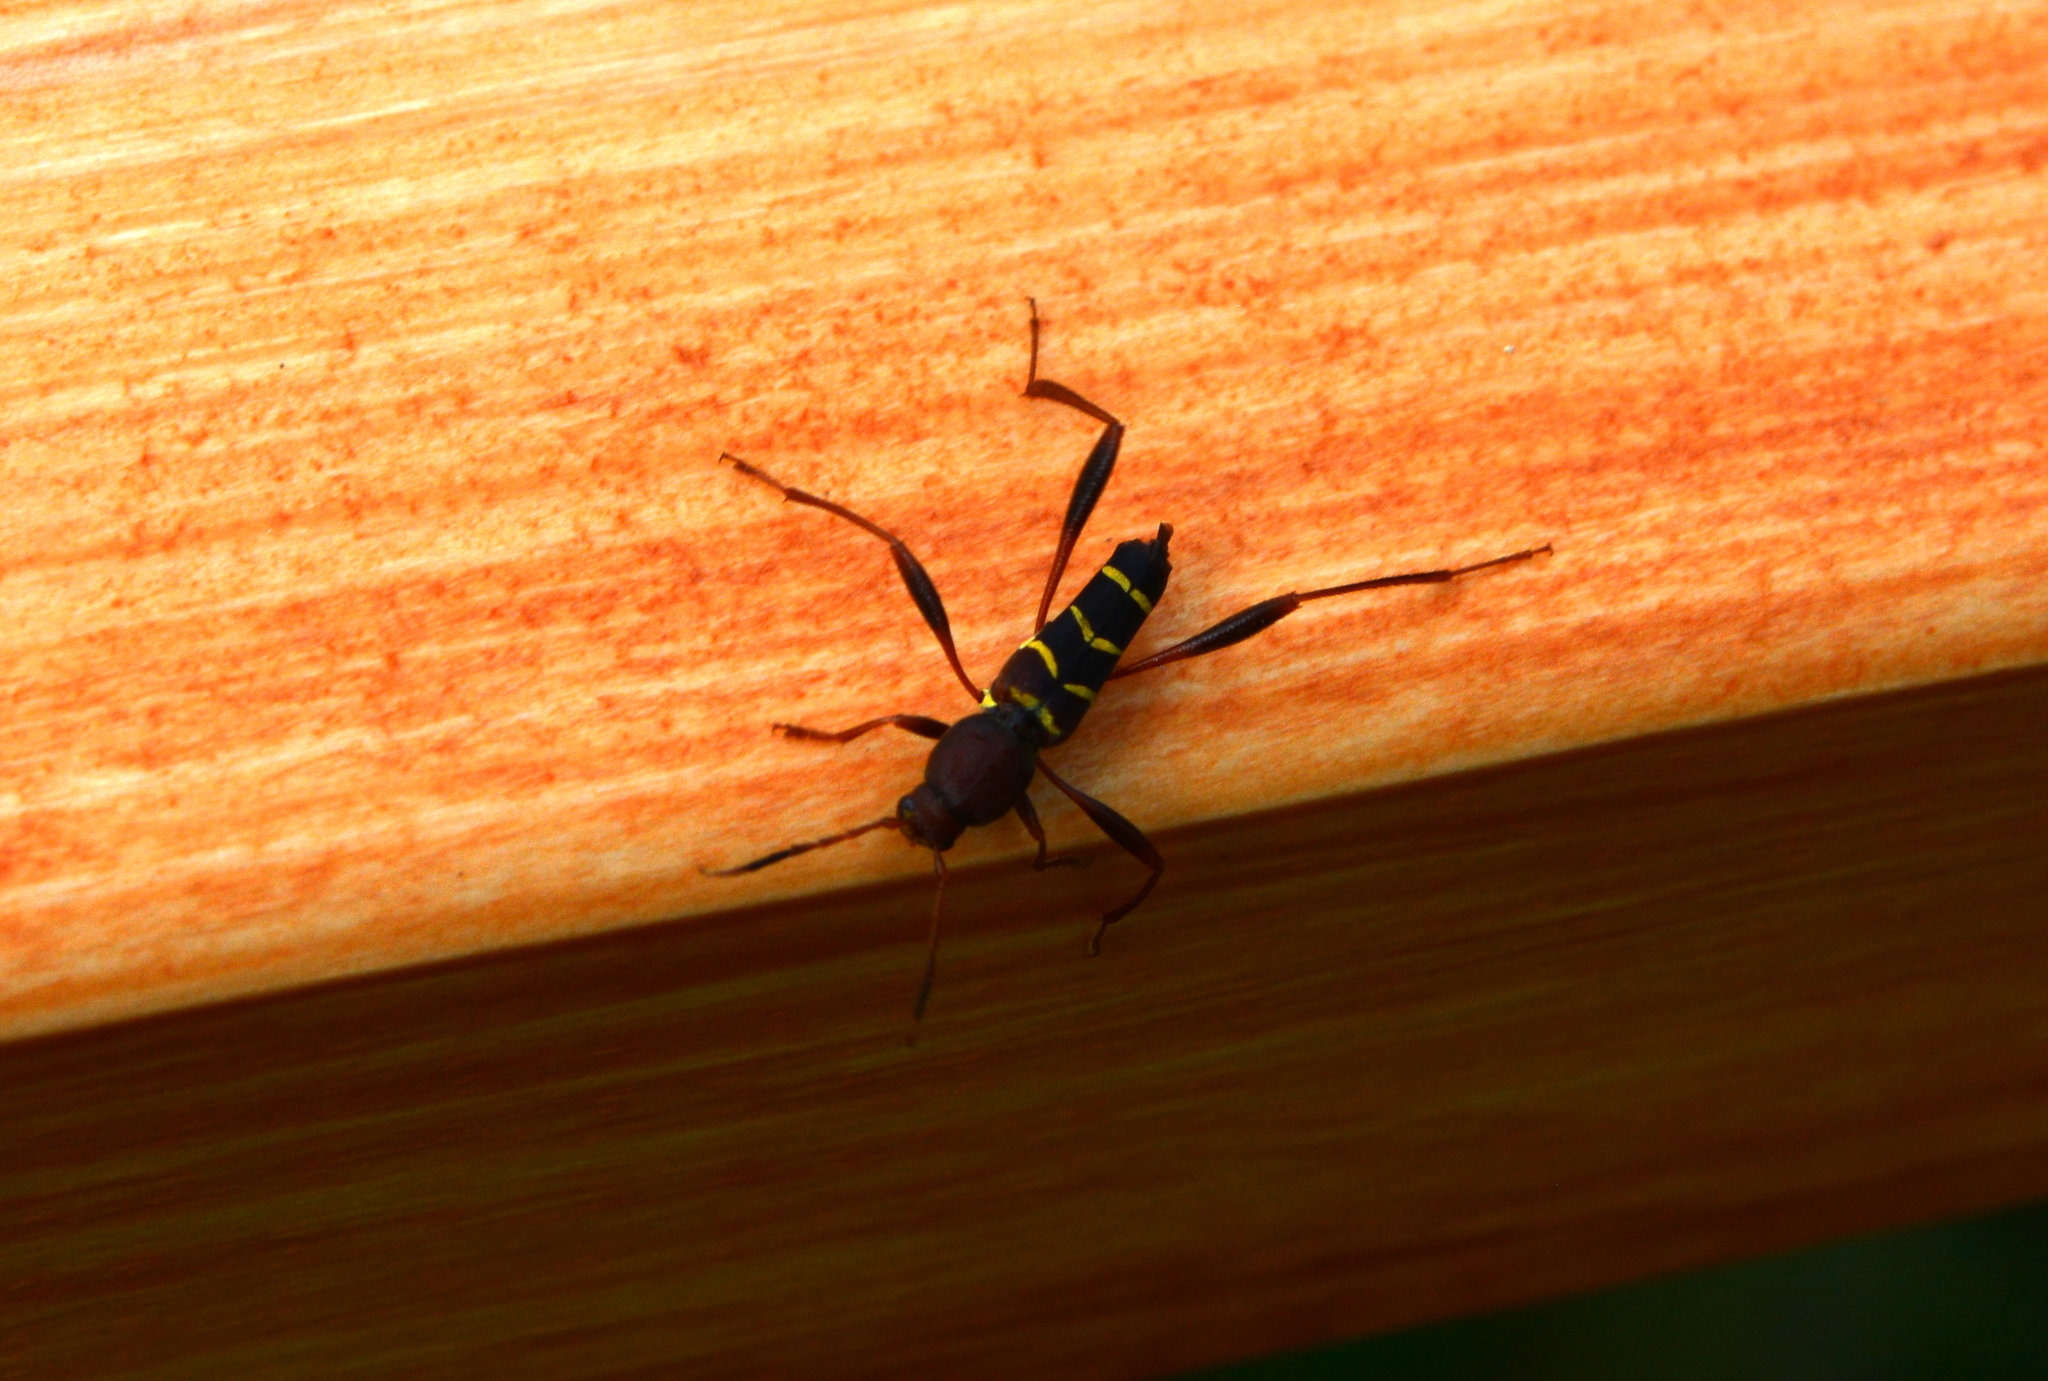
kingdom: Animalia
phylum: Arthropoda
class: Insecta
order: Coleoptera
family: Cerambycidae
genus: Neoclytus
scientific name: Neoclytus acuminatus
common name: Read-headed ash borer
